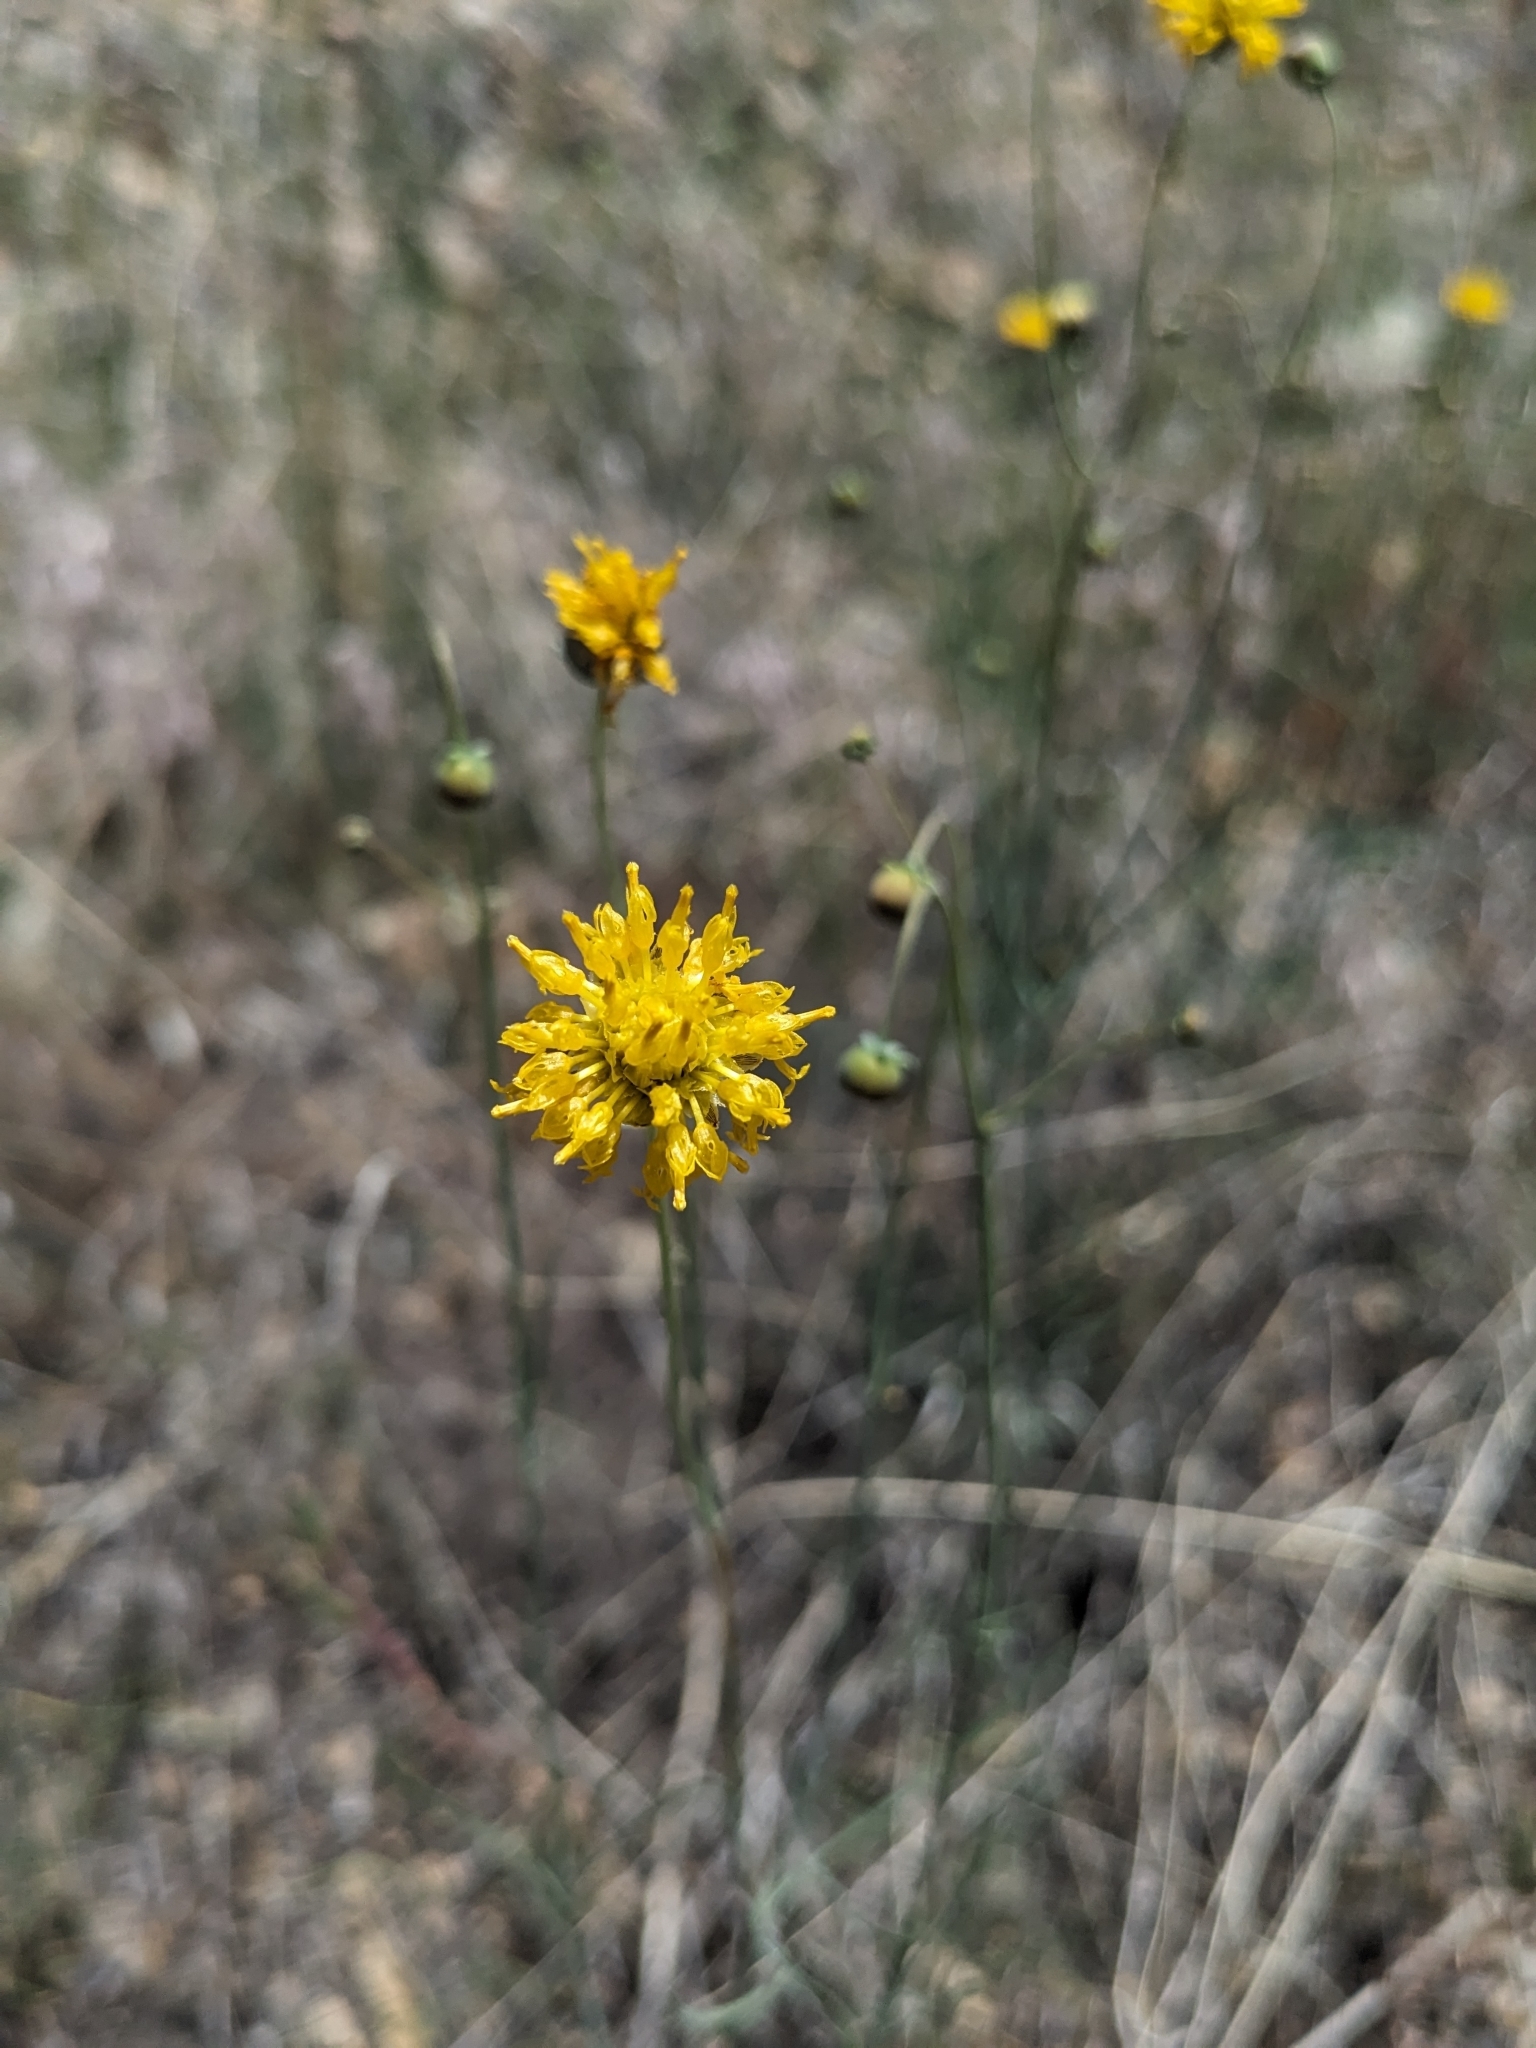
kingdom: Plantae
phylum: Tracheophyta
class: Magnoliopsida
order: Asterales
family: Asteraceae
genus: Thelesperma
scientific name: Thelesperma megapotamicum
